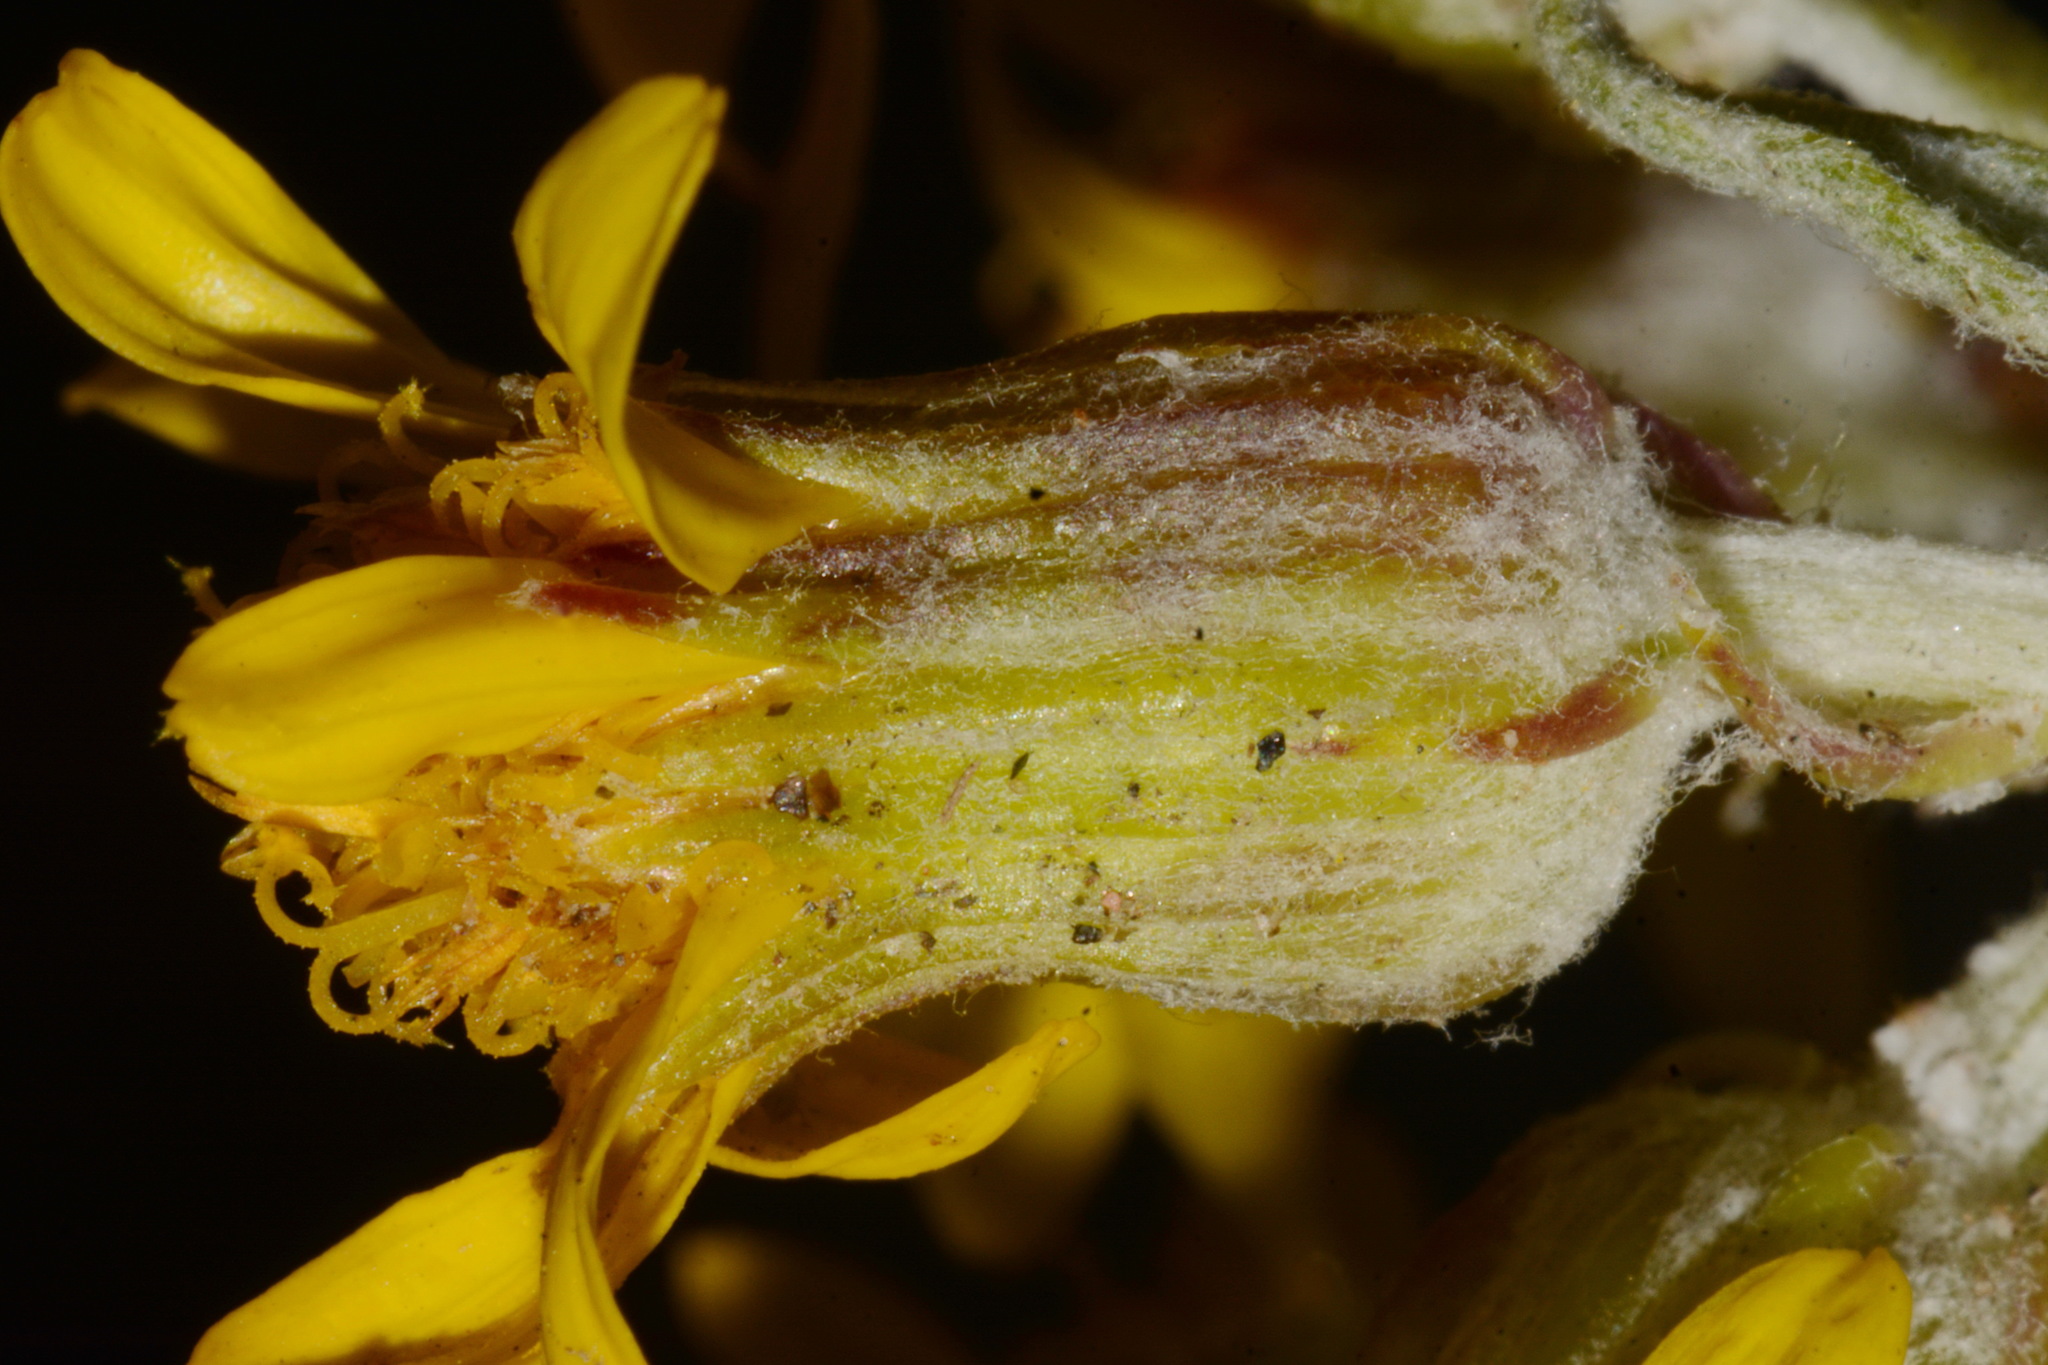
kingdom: Plantae
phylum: Tracheophyta
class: Magnoliopsida
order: Asterales
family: Asteraceae
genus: Packera
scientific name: Packera cana
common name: Woolly groundsel
